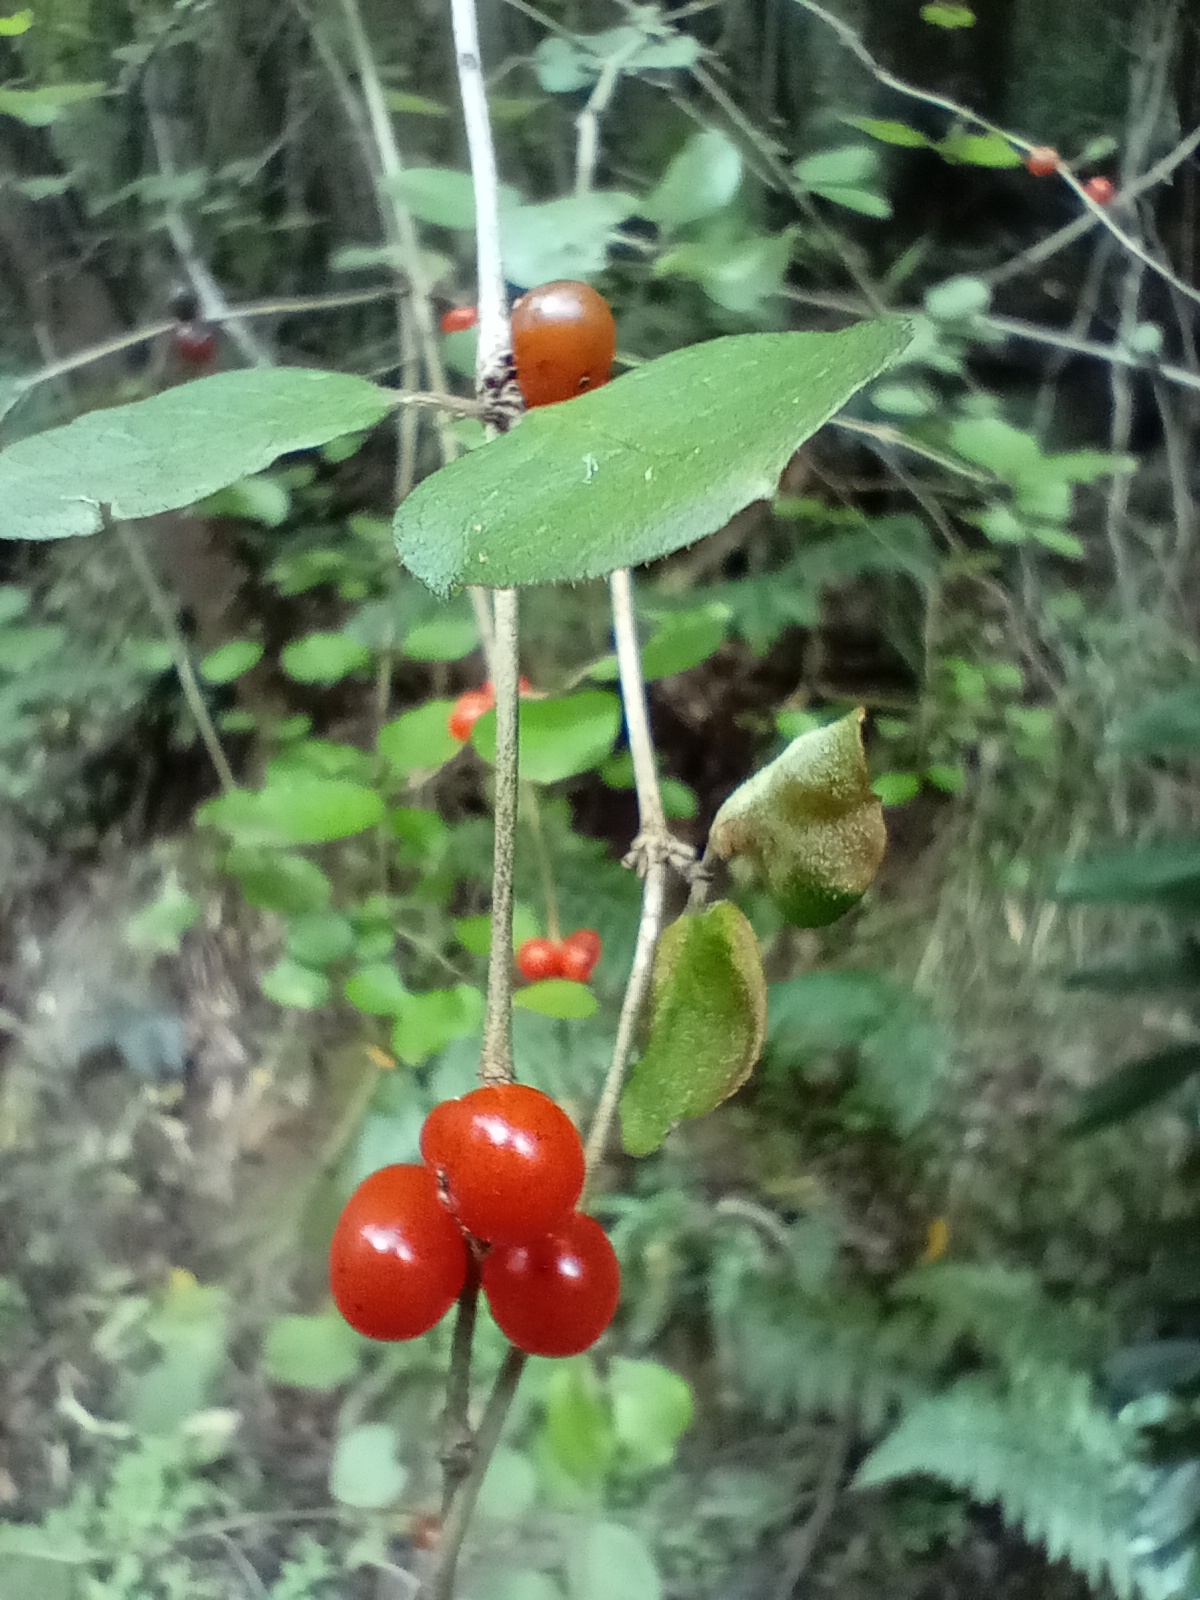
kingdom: Plantae
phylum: Tracheophyta
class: Magnoliopsida
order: Gentianales
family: Rubiaceae
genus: Coprosma
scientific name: Coprosma rotundifolia
